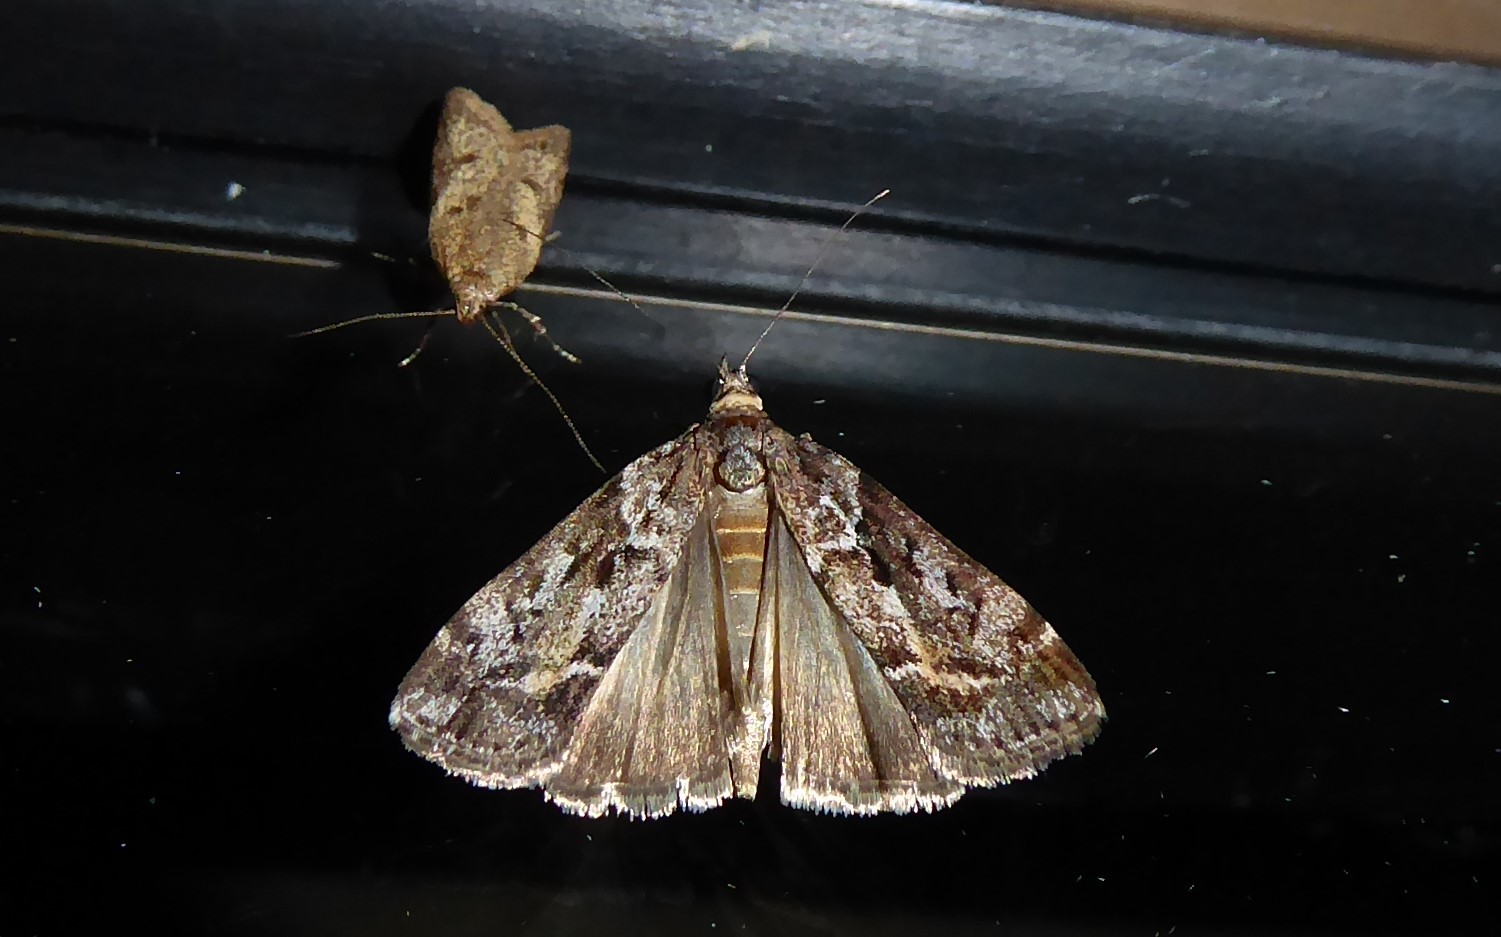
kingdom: Animalia
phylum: Arthropoda
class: Insecta
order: Lepidoptera
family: Crambidae
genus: Eudonia
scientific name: Eudonia submarginalis
